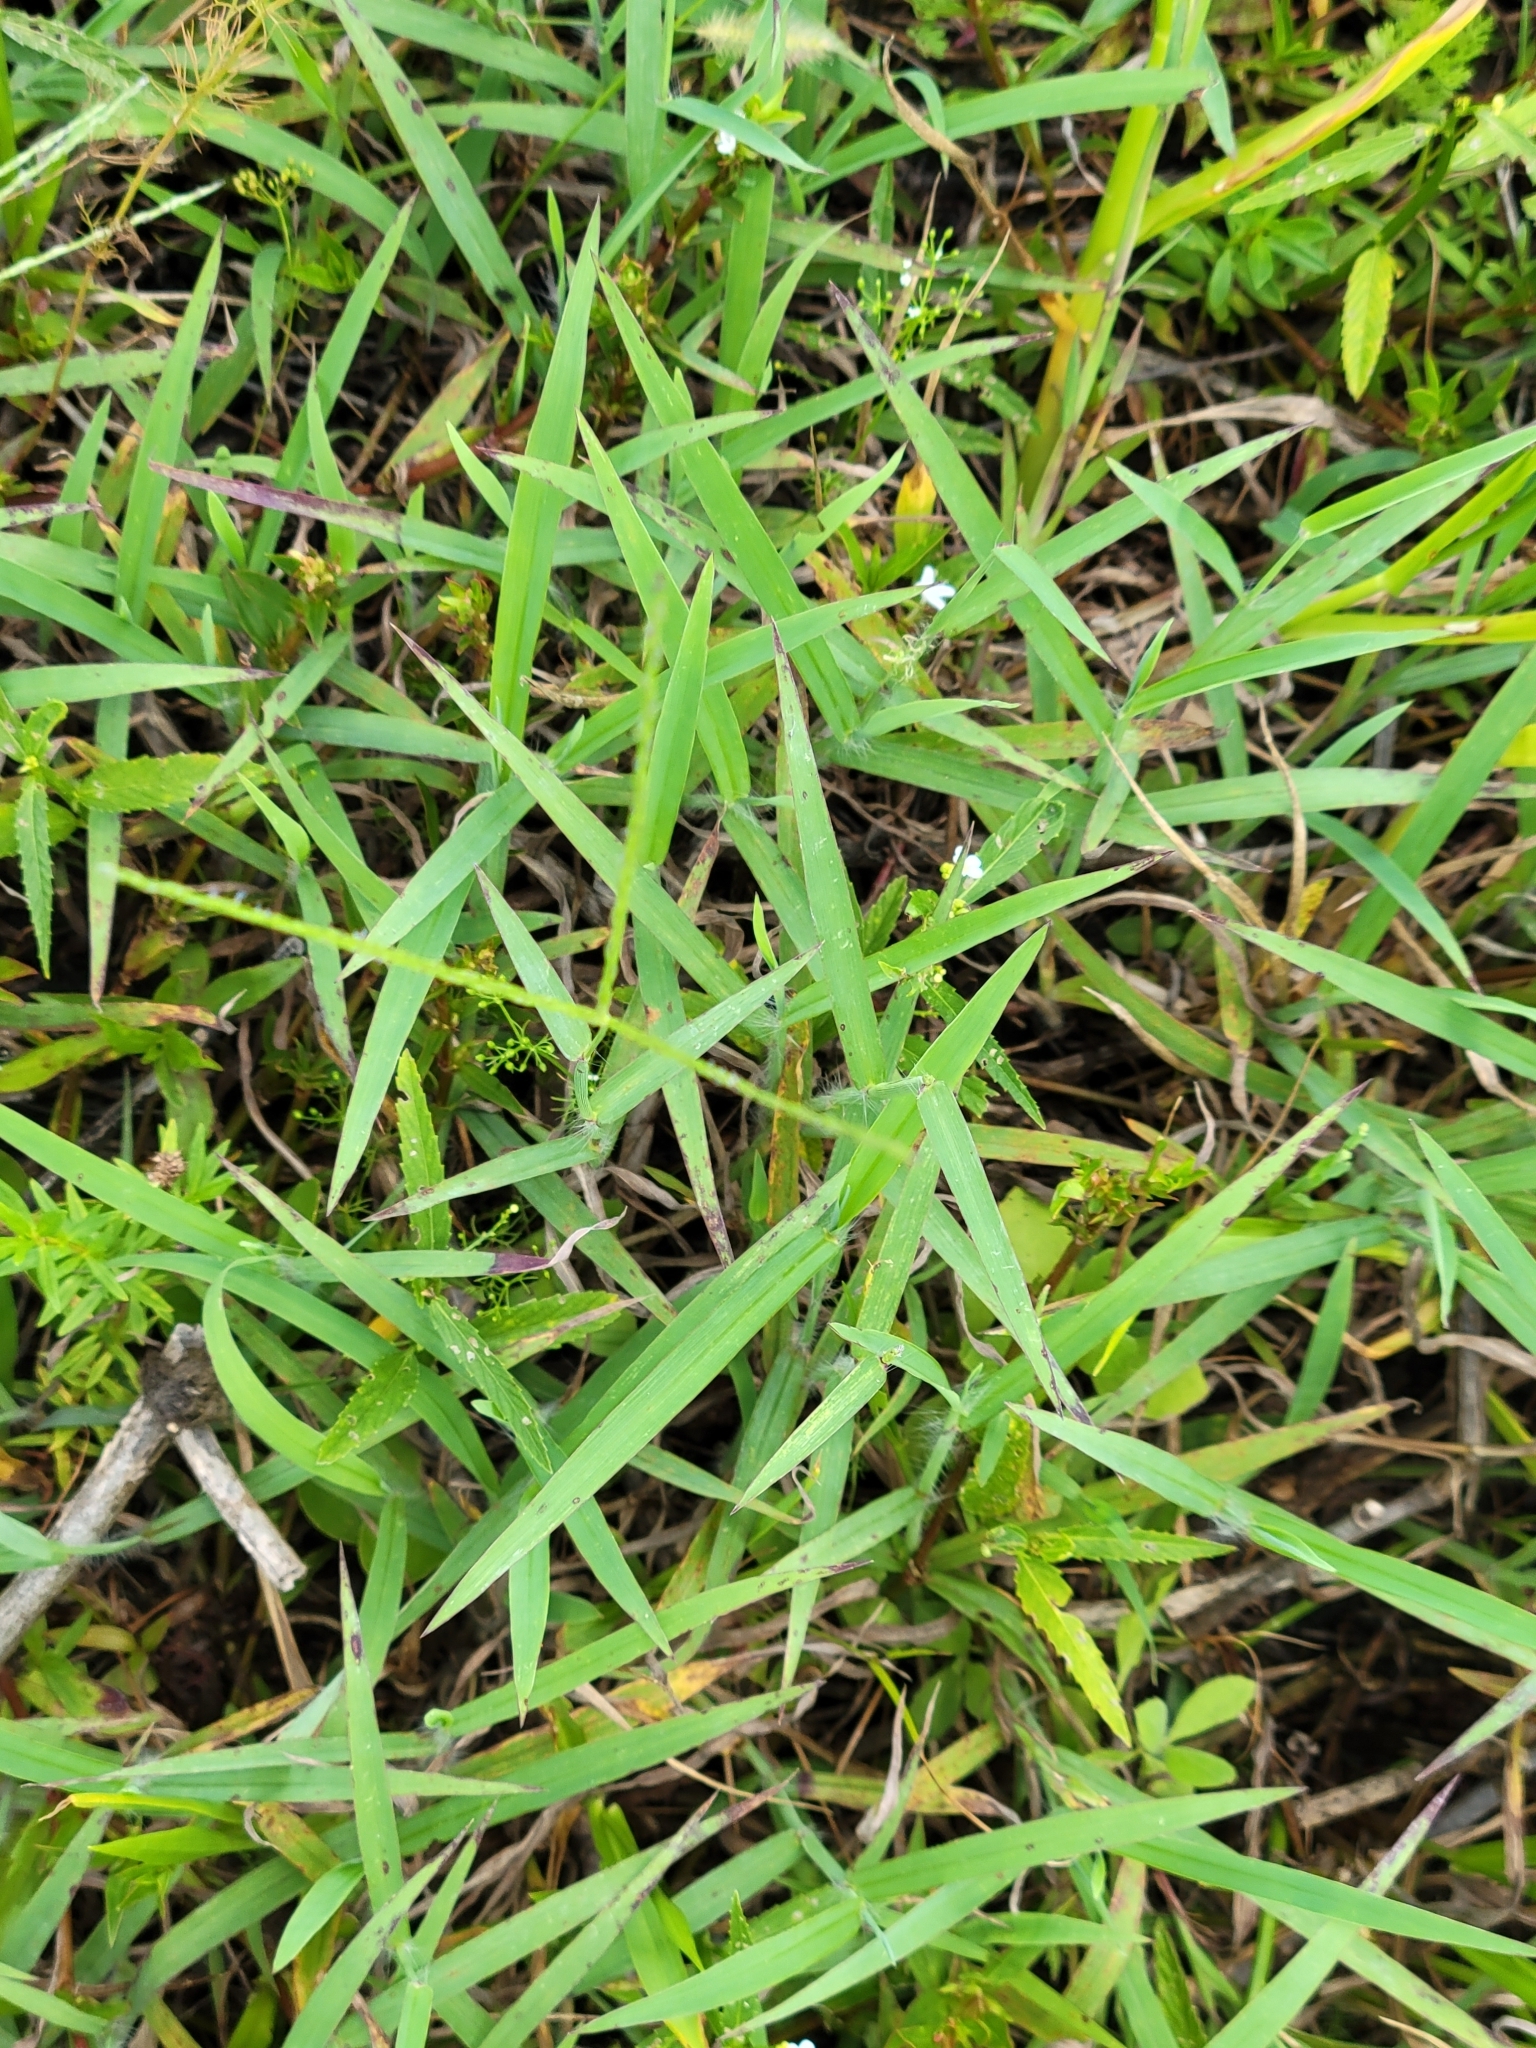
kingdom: Plantae
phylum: Tracheophyta
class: Liliopsida
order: Poales
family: Poaceae
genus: Digitaria
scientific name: Digitaria ciliaris
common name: Tropical finger-grass
